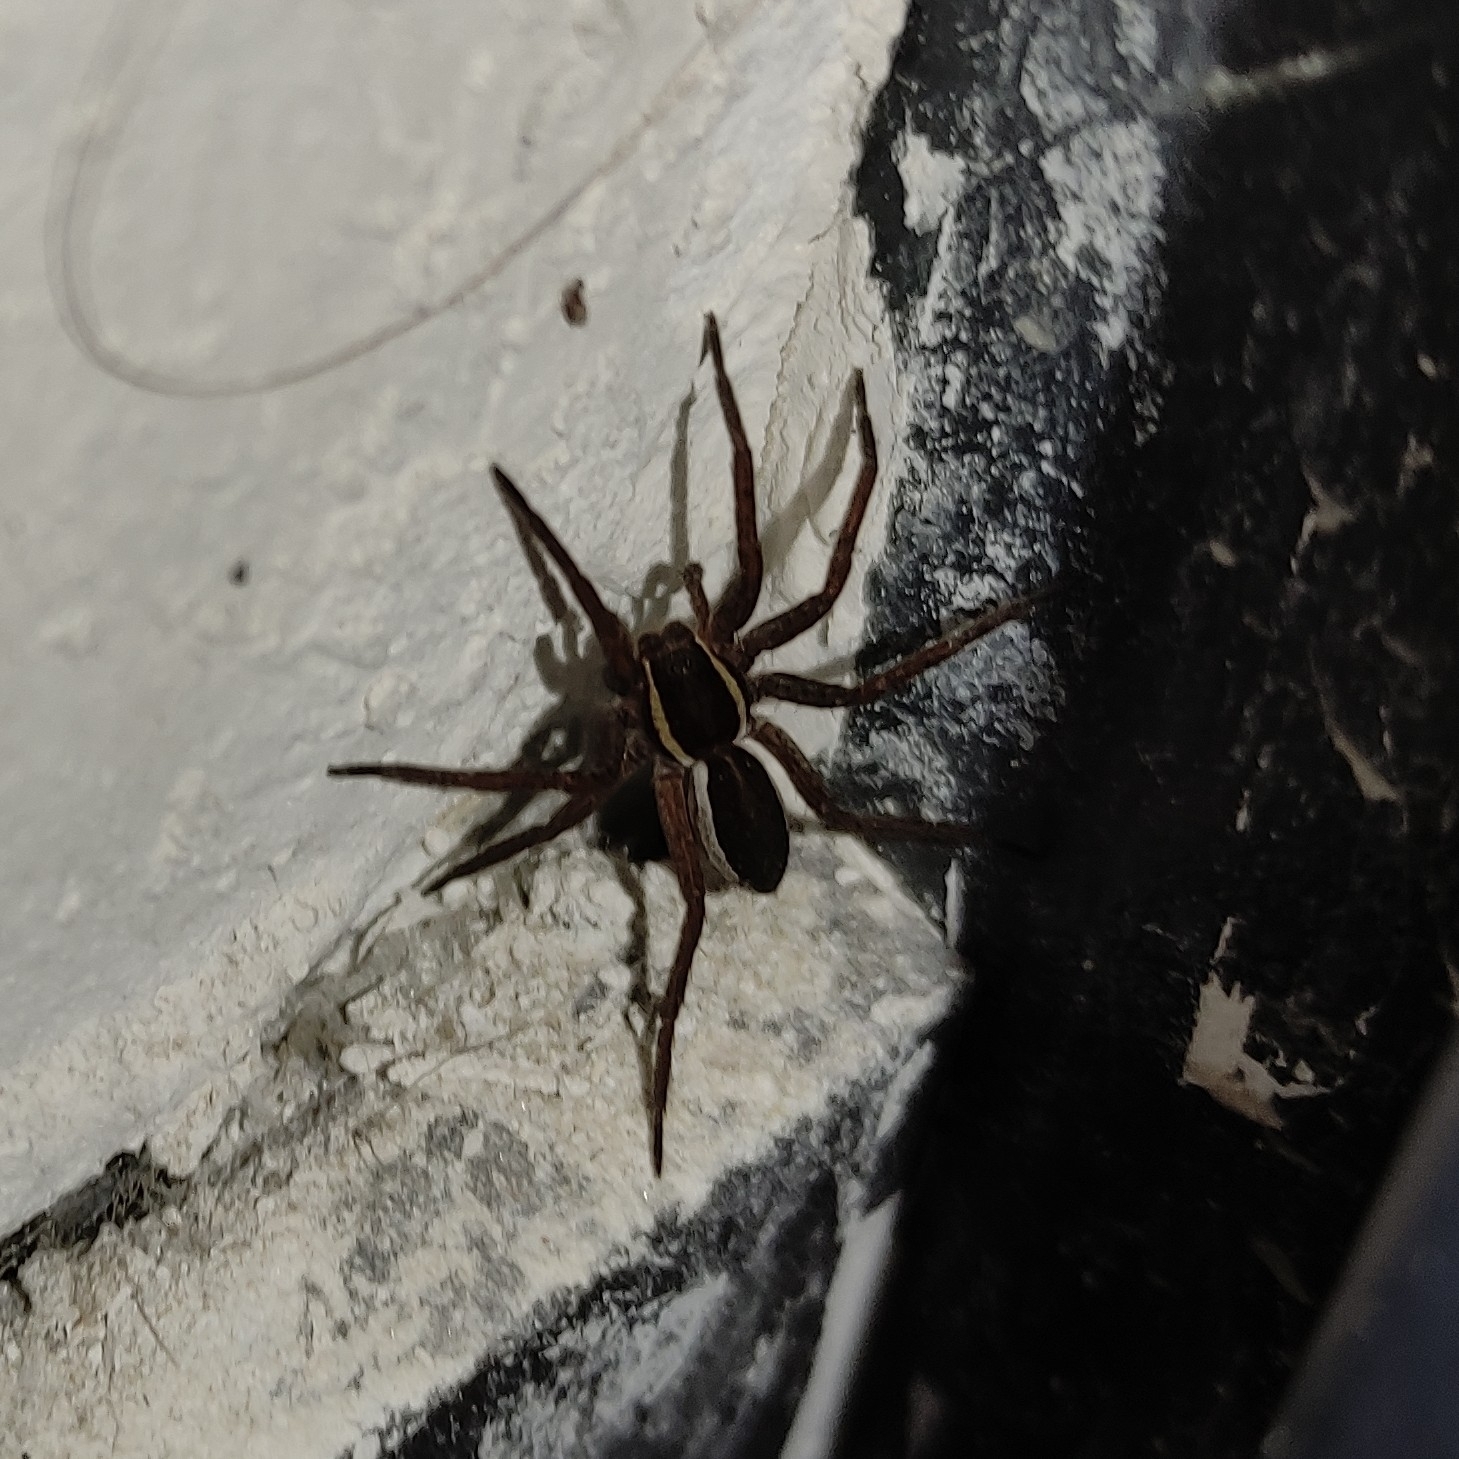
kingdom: Animalia
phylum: Arthropoda
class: Arachnida
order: Araneae
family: Pisauridae
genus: Dolomedes
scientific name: Dolomedes
